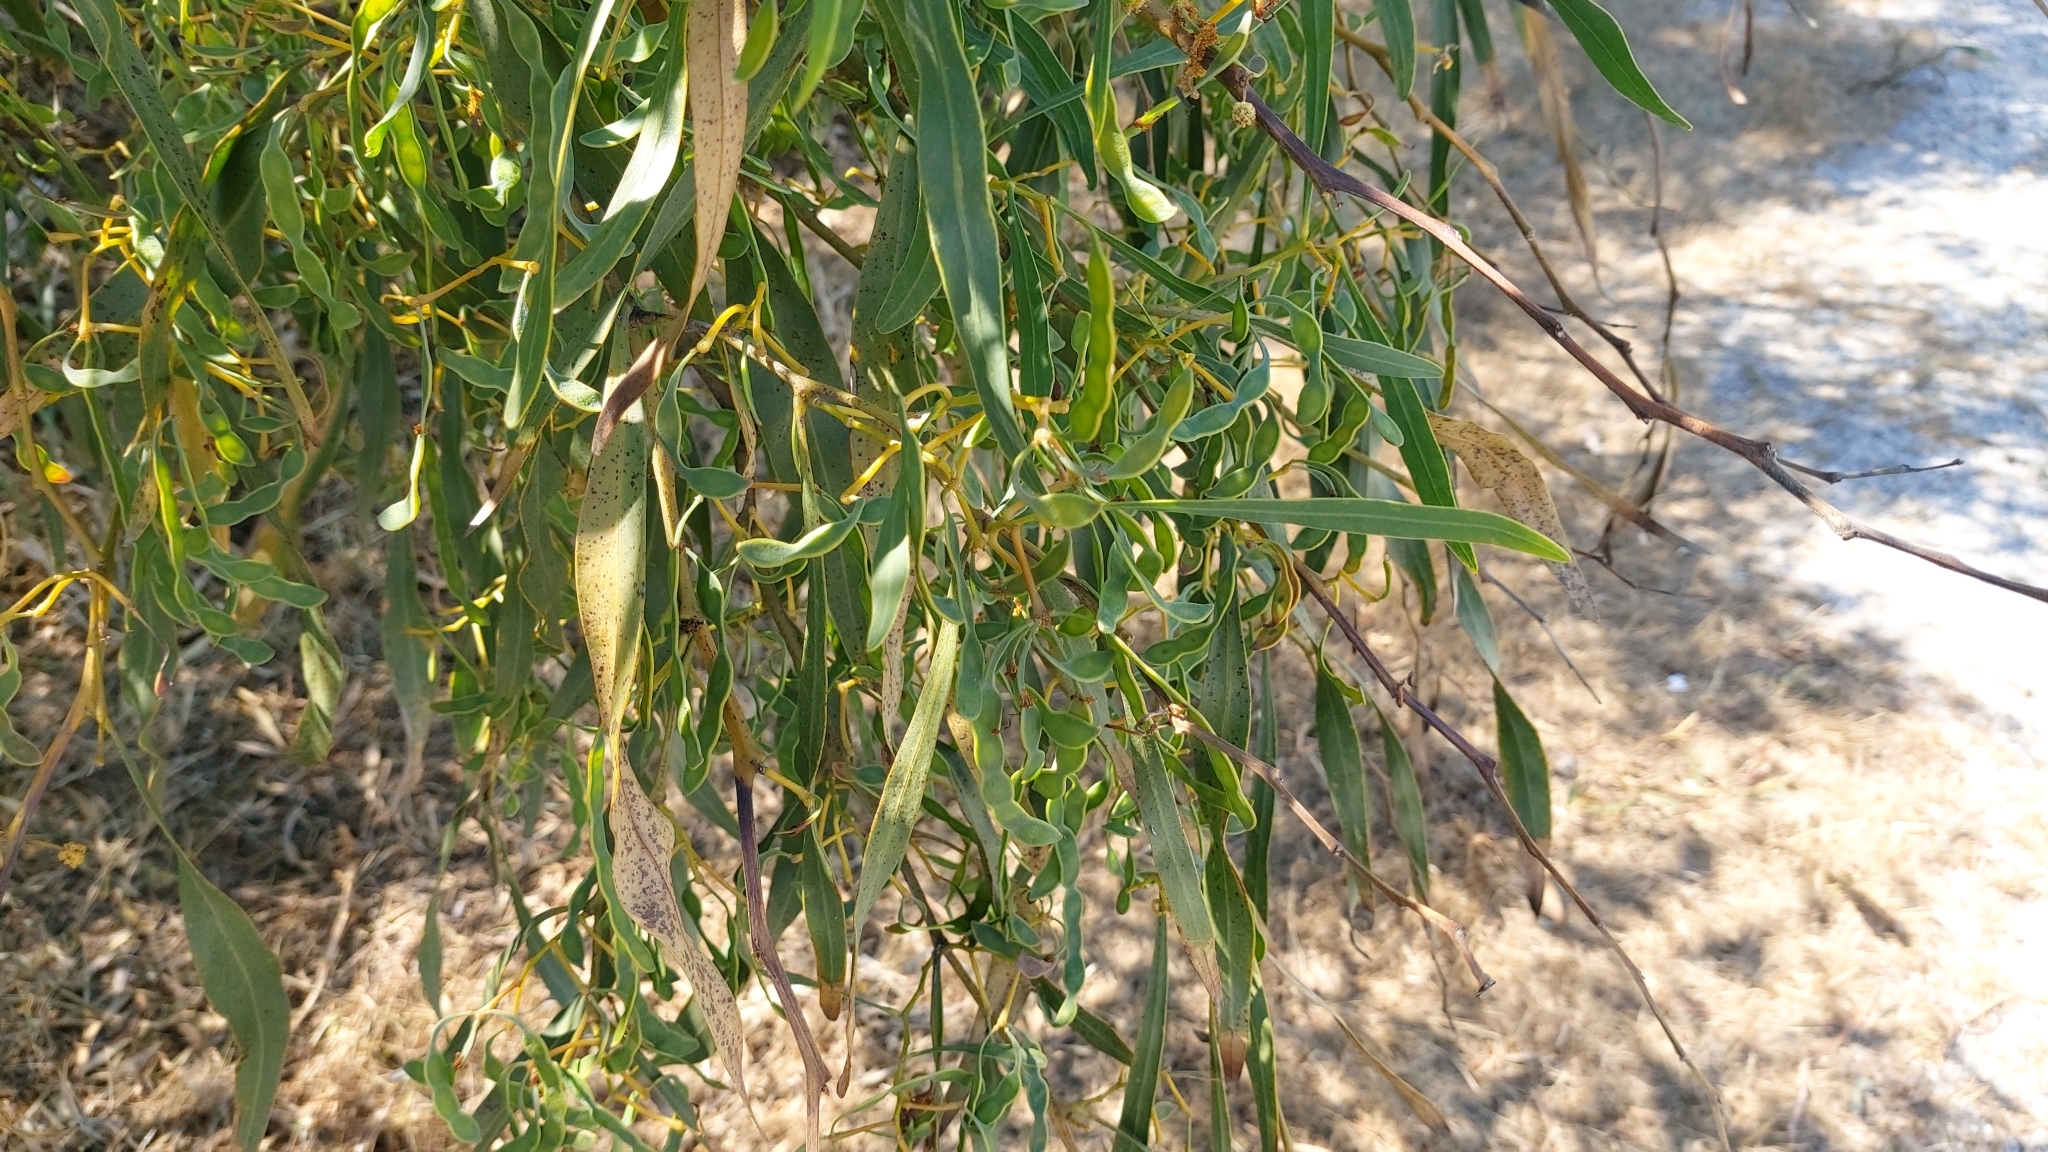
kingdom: Plantae
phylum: Tracheophyta
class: Magnoliopsida
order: Fabales
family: Fabaceae
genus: Acacia
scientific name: Acacia saligna
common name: Orange wattle
